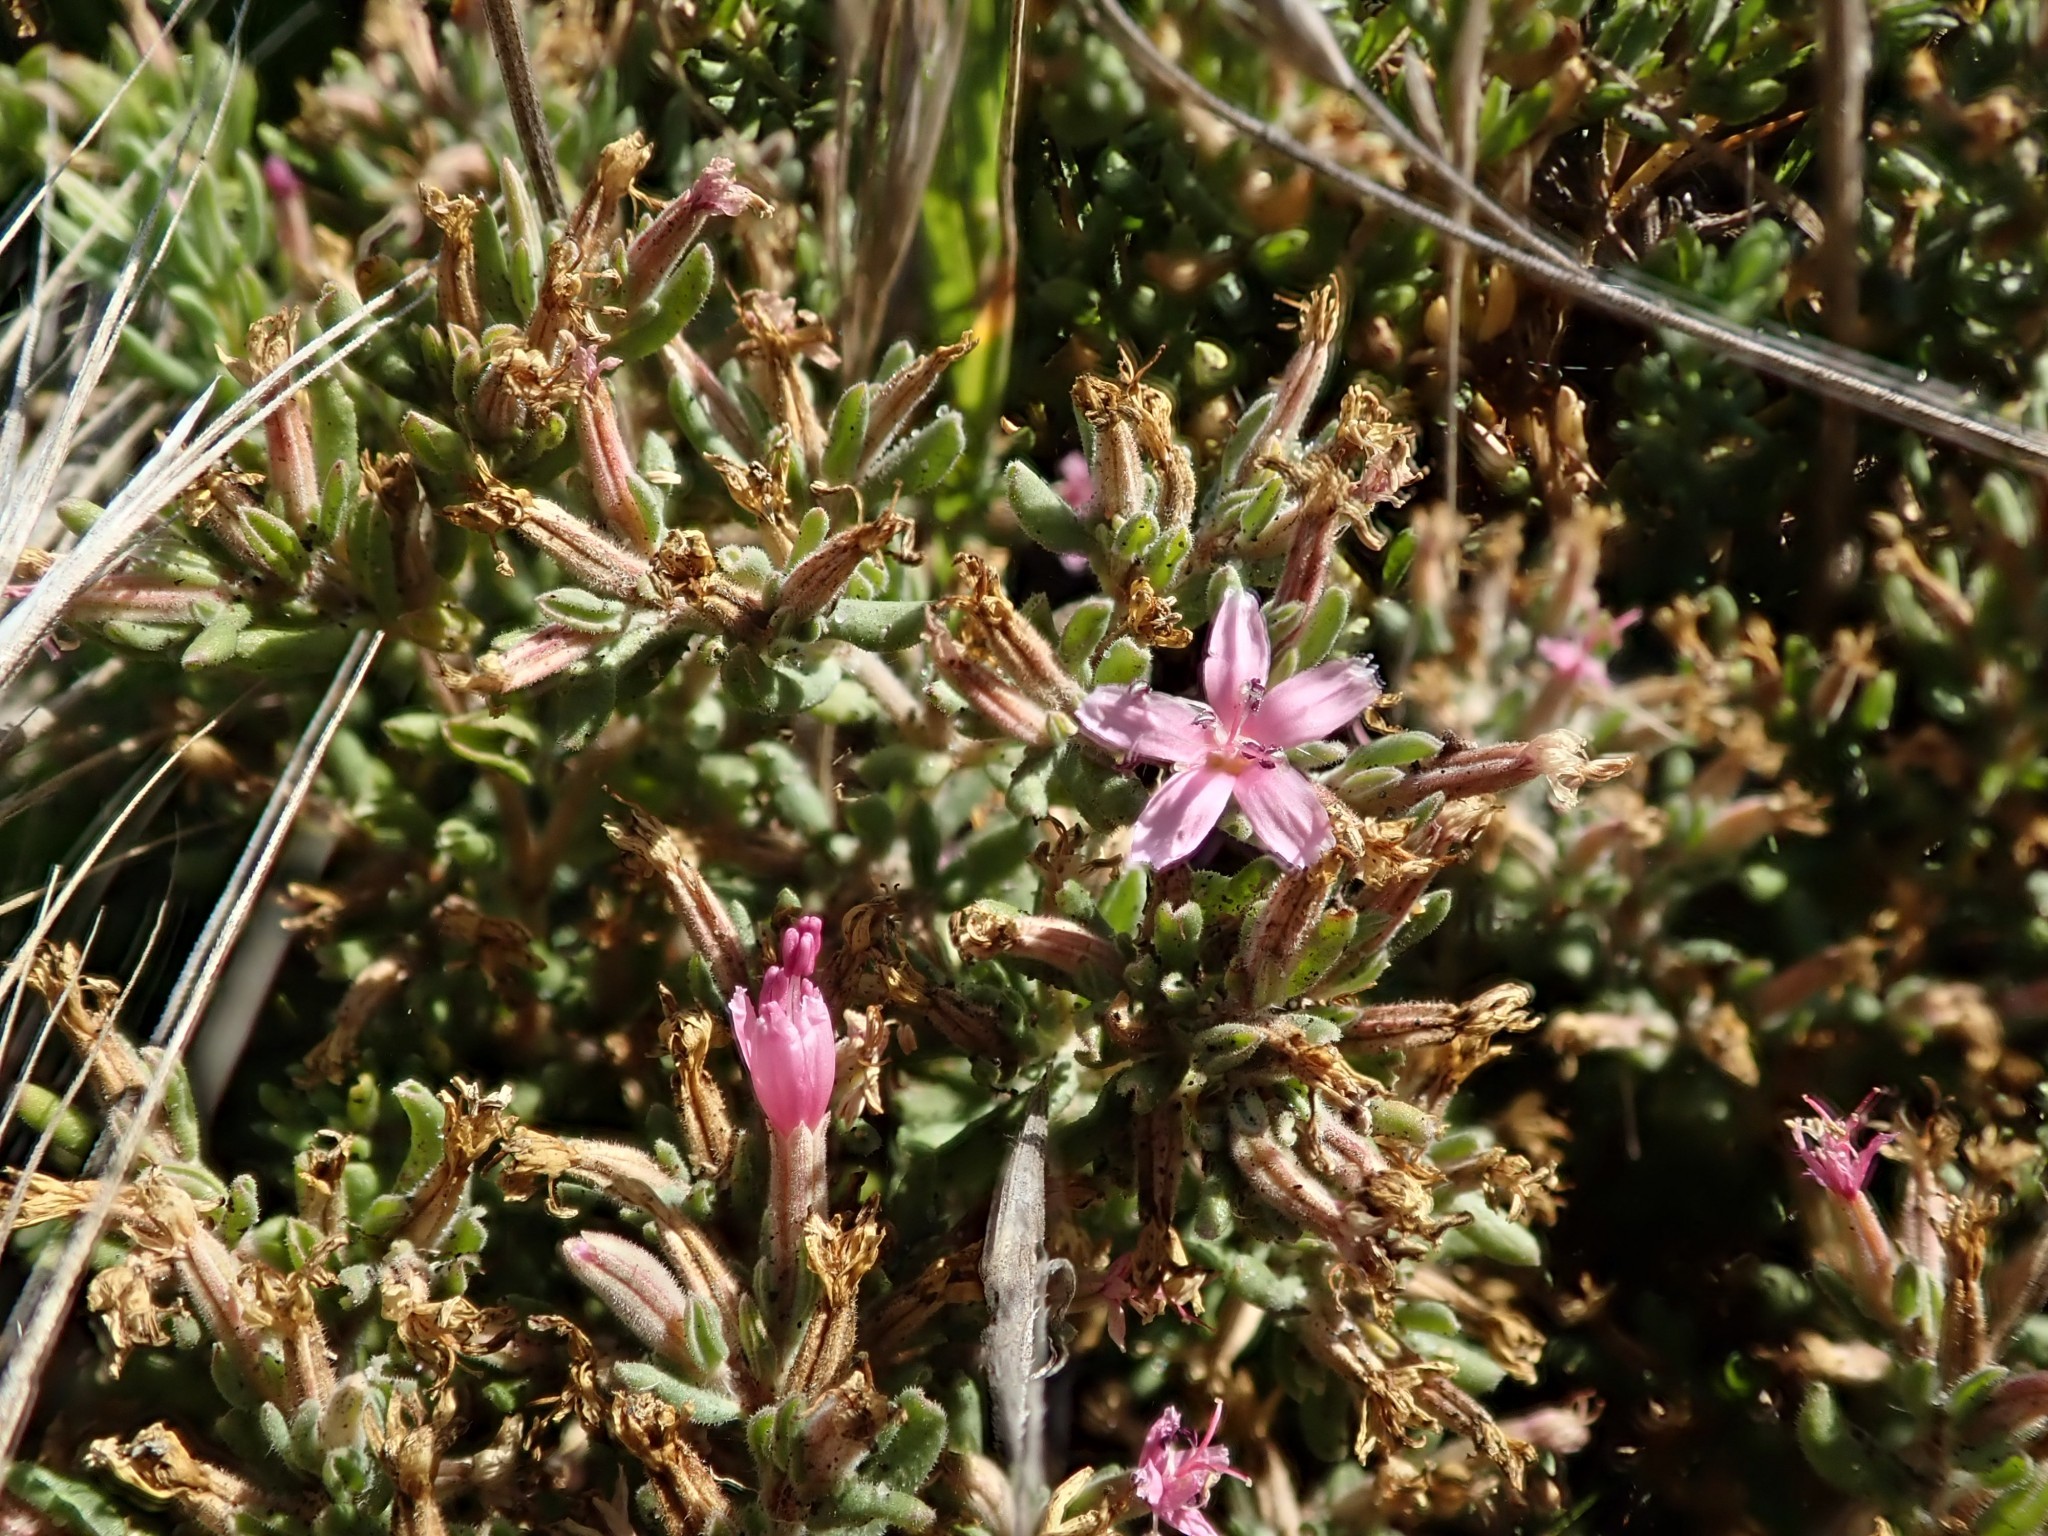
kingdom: Plantae
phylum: Tracheophyta
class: Magnoliopsida
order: Caryophyllales
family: Frankeniaceae
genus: Frankenia
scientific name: Frankenia salina
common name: Alkali seaheath
